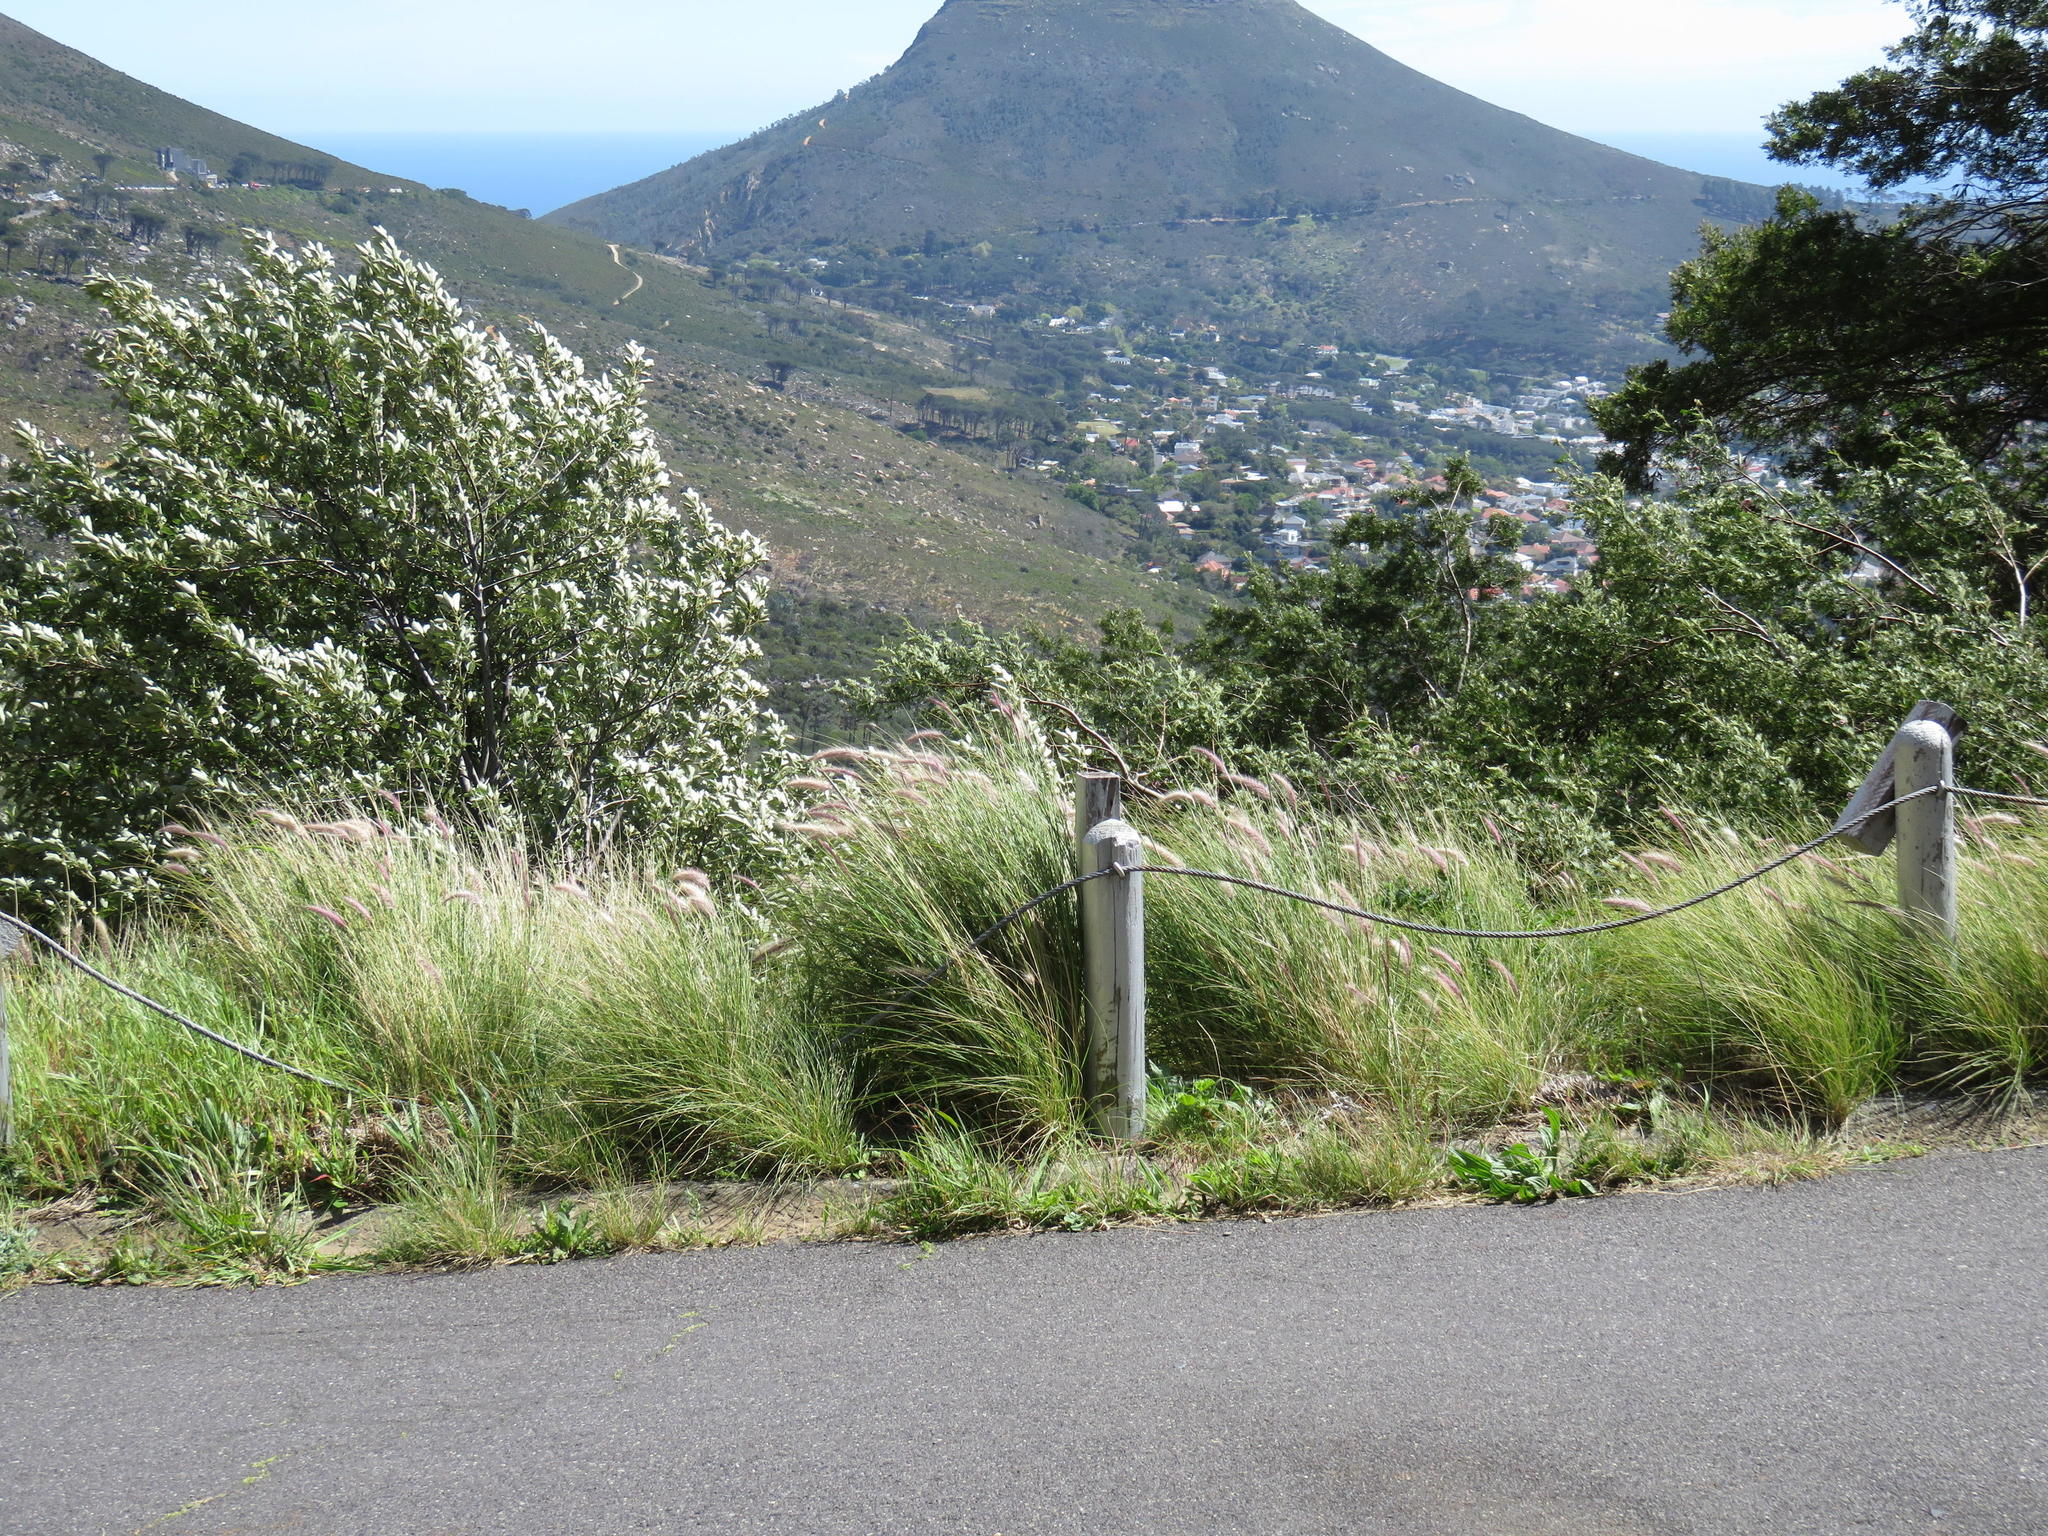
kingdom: Plantae
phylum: Tracheophyta
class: Liliopsida
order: Poales
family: Poaceae
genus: Cenchrus
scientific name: Cenchrus setaceus
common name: Crimson fountaingrass
